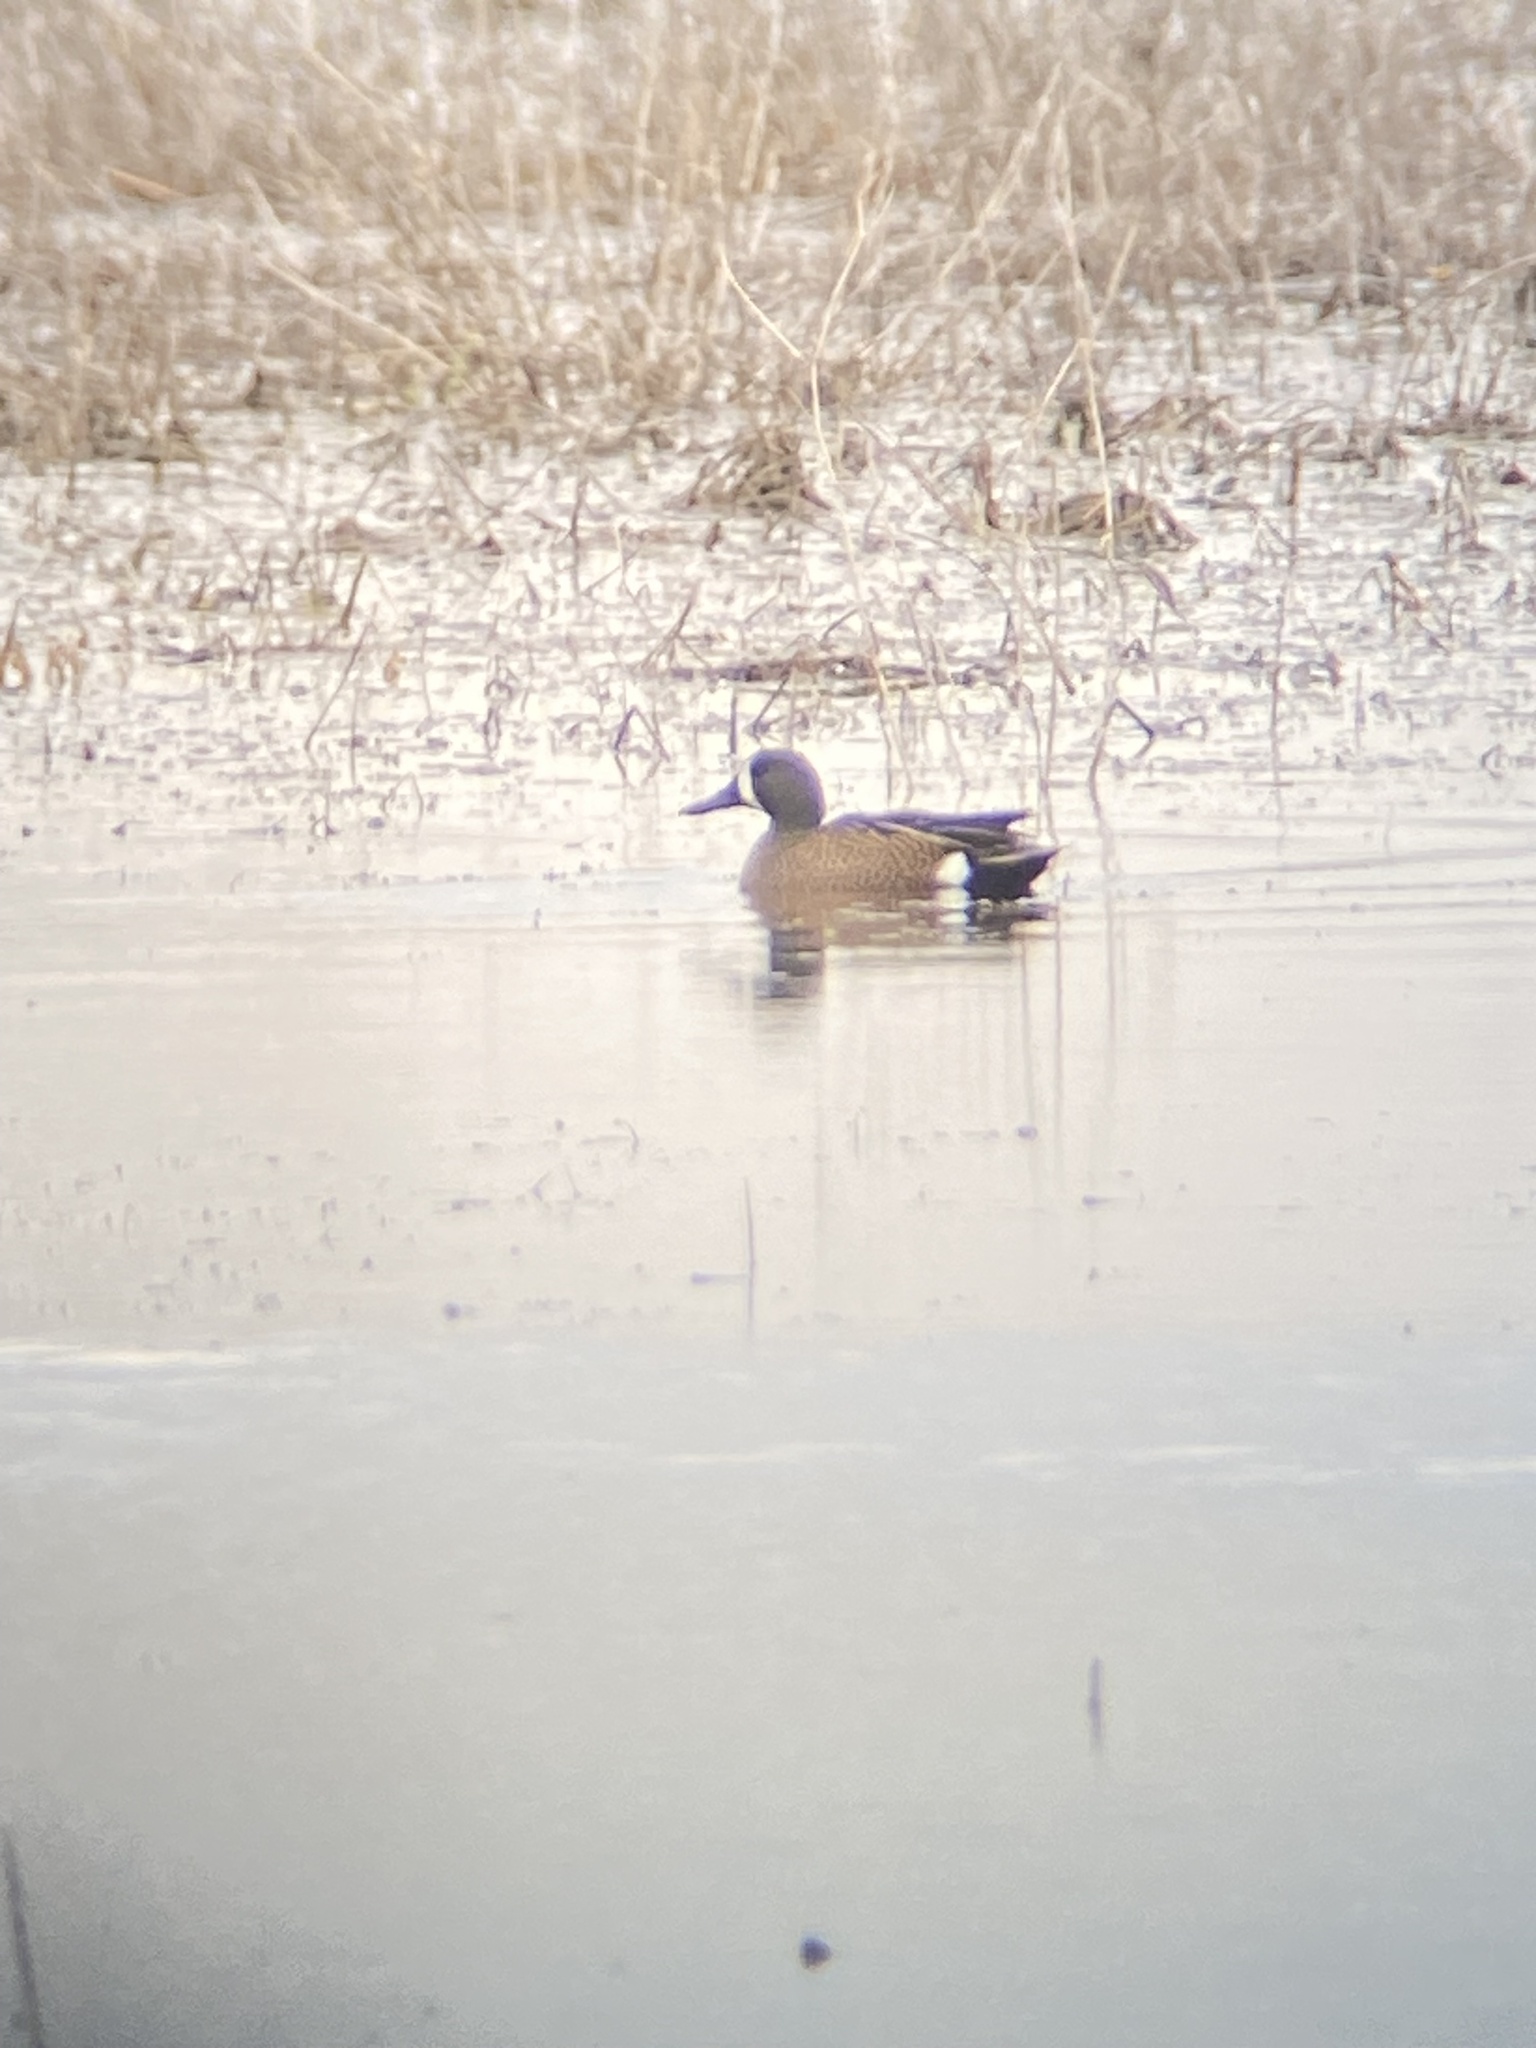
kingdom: Animalia
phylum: Chordata
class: Aves
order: Anseriformes
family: Anatidae
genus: Spatula
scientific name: Spatula discors
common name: Blue-winged teal
